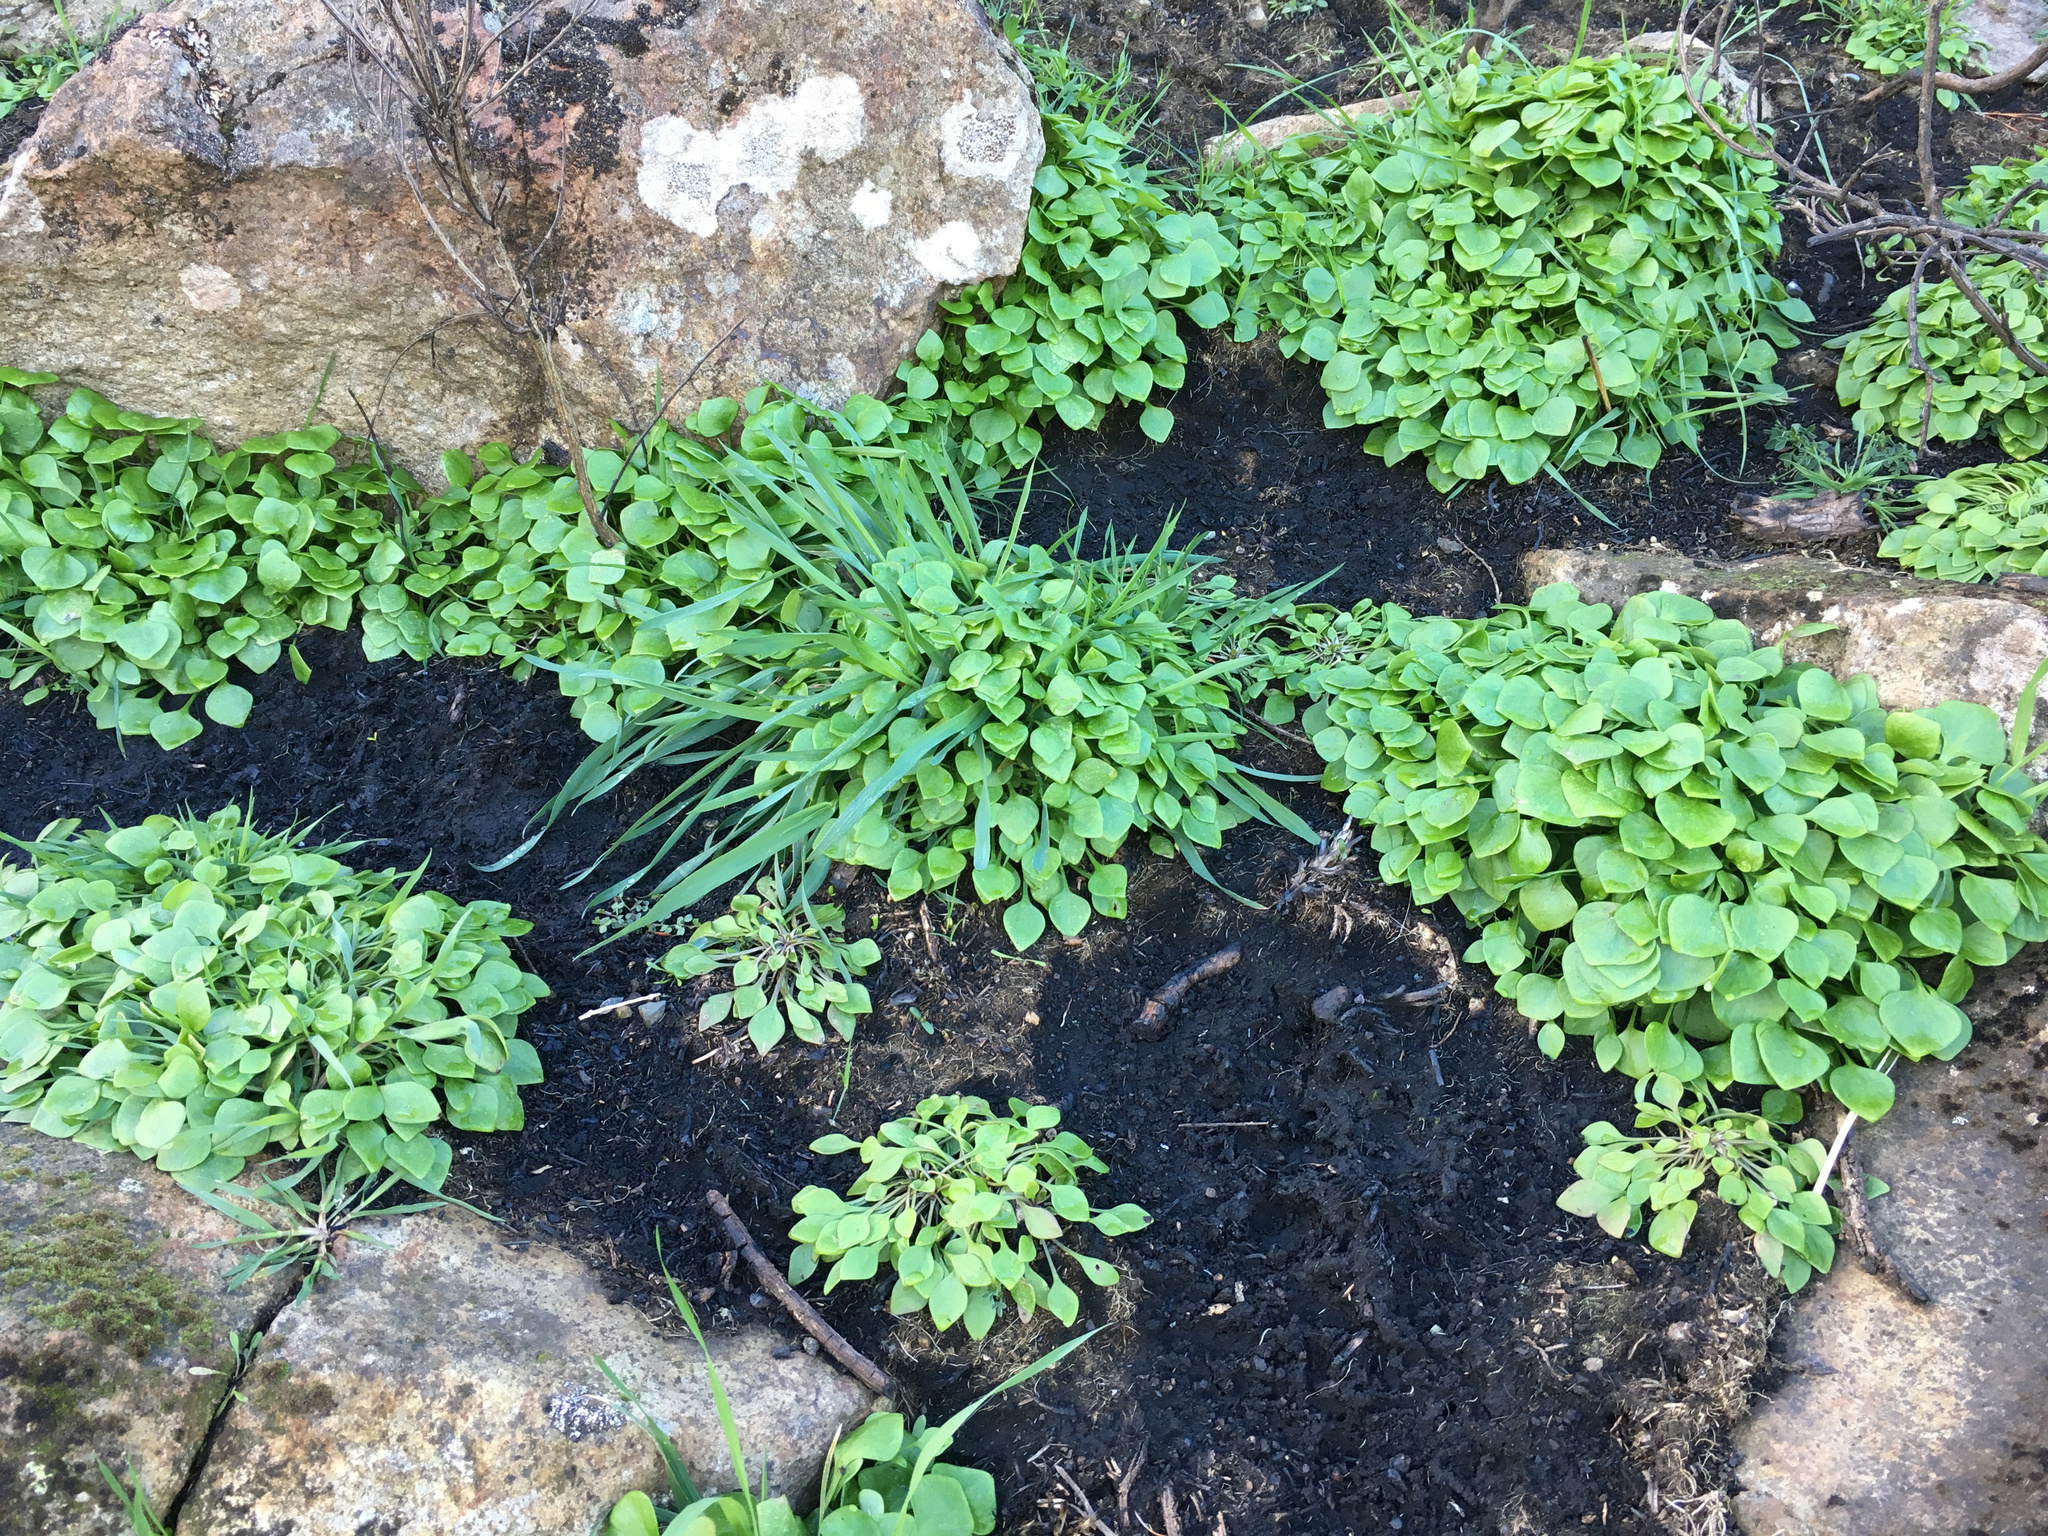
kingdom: Plantae
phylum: Tracheophyta
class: Magnoliopsida
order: Caryophyllales
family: Montiaceae
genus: Claytonia
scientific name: Claytonia perfoliata
